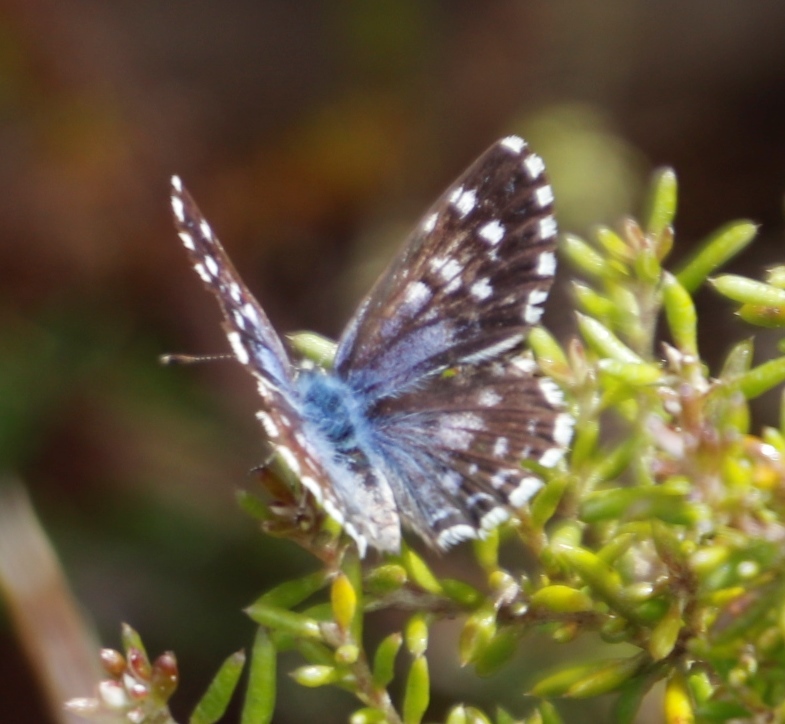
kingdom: Animalia
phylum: Arthropoda
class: Insecta
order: Lepidoptera
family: Lycaenidae
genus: Tarucus
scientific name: Tarucus thespis
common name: Vivid dotted blue
